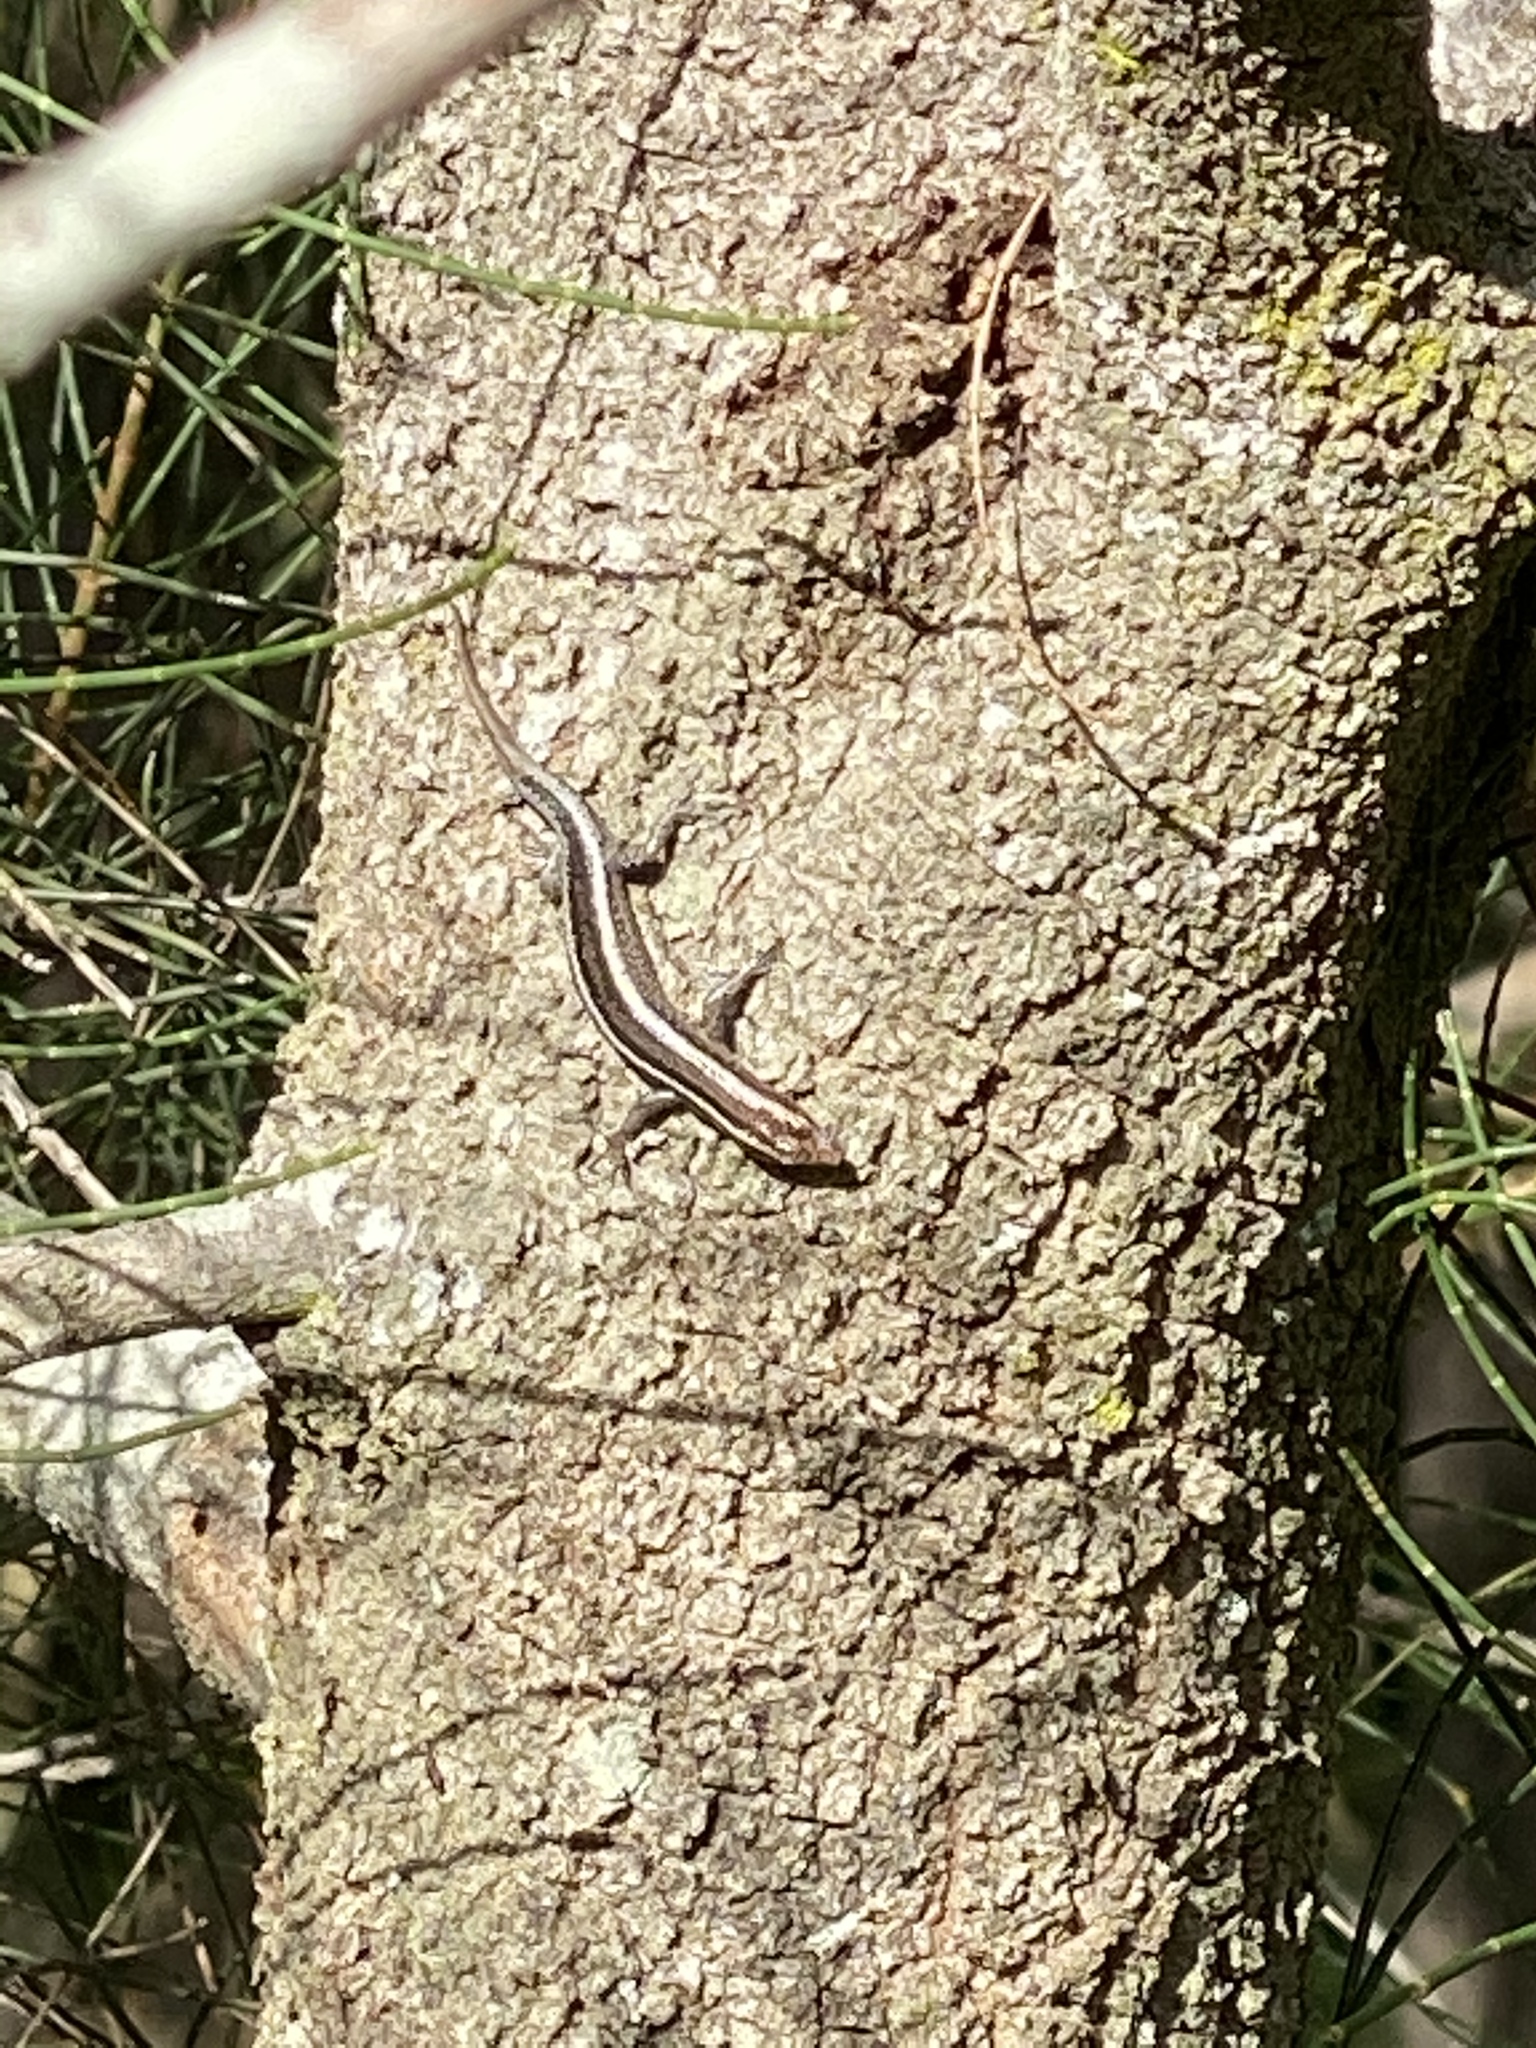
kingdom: Animalia
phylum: Chordata
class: Squamata
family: Scincidae
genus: Cryptoblepharus
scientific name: Cryptoblepharus pulcher
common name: Elegant snake-eyed skink
